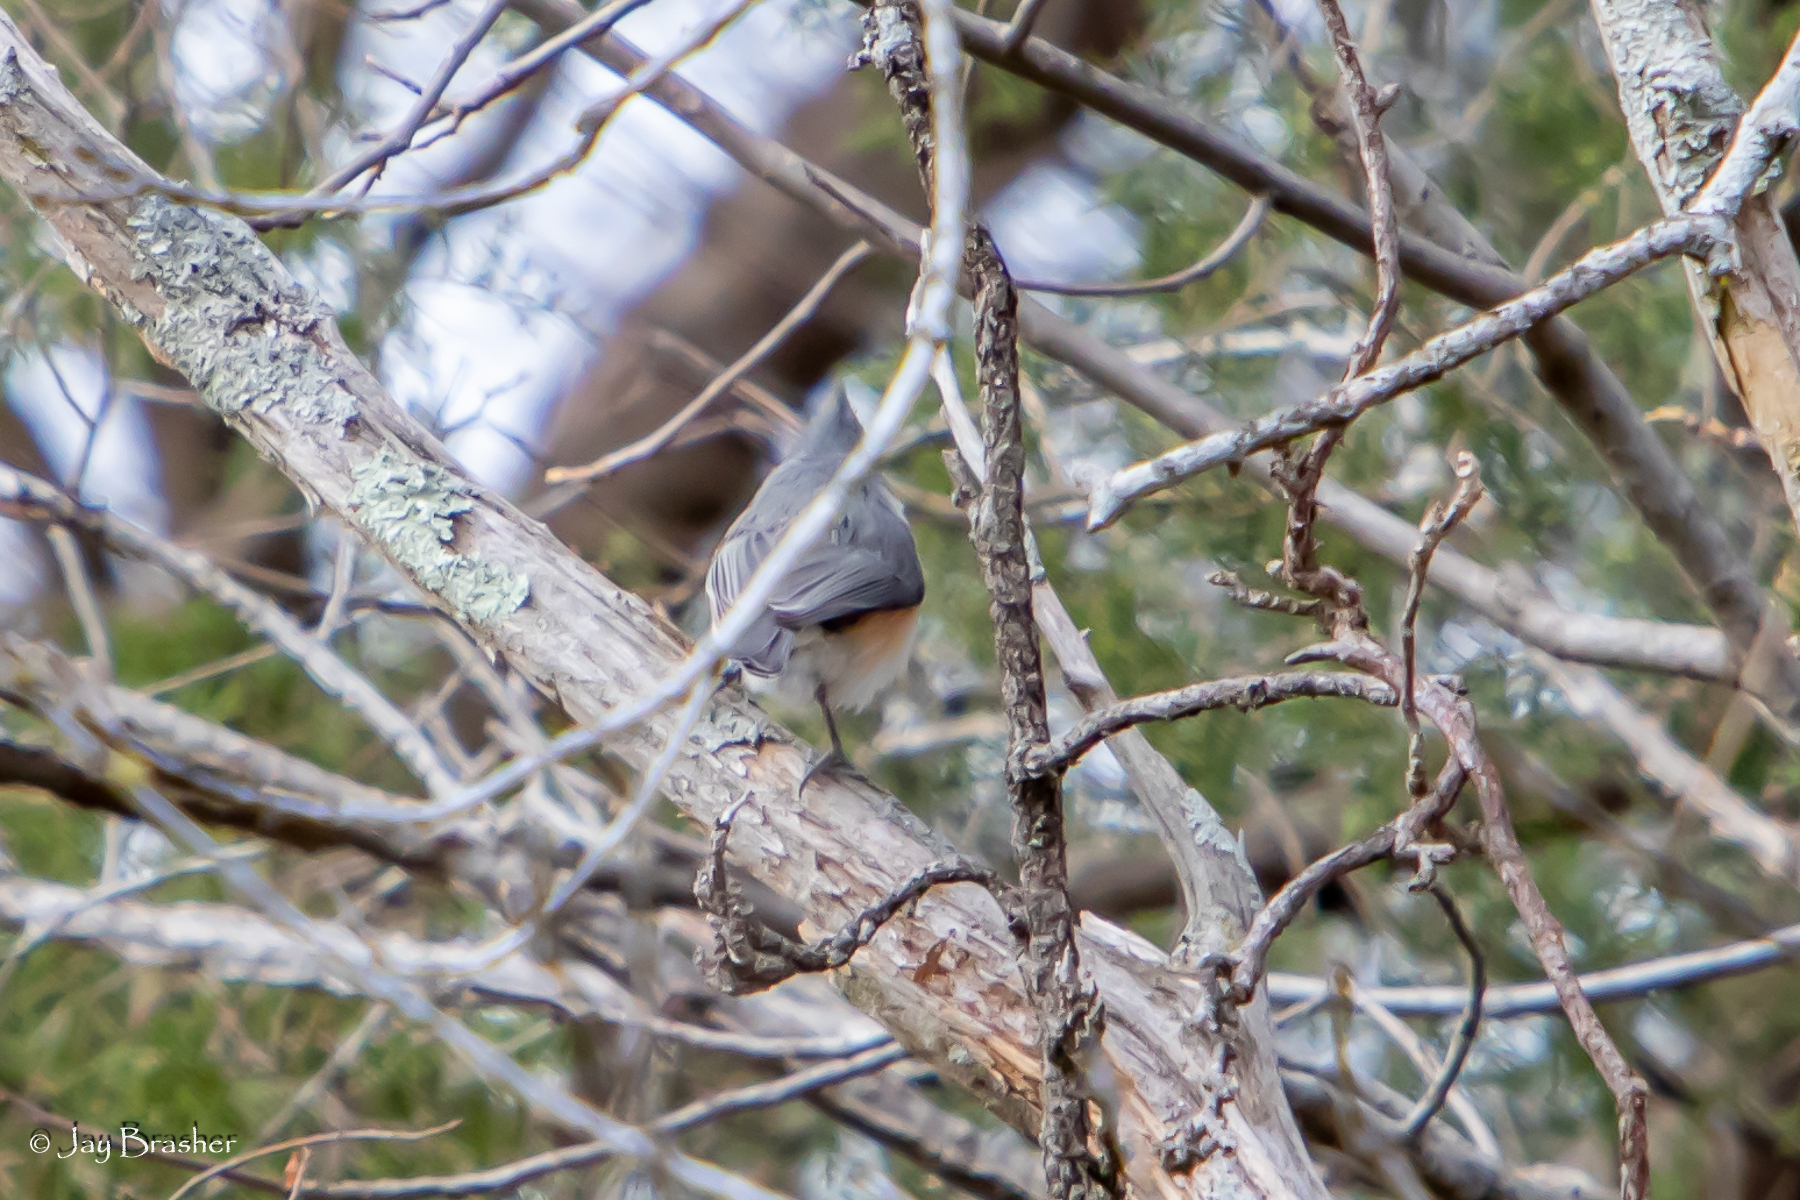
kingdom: Animalia
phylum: Chordata
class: Aves
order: Passeriformes
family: Paridae
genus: Baeolophus
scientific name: Baeolophus bicolor
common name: Tufted titmouse
